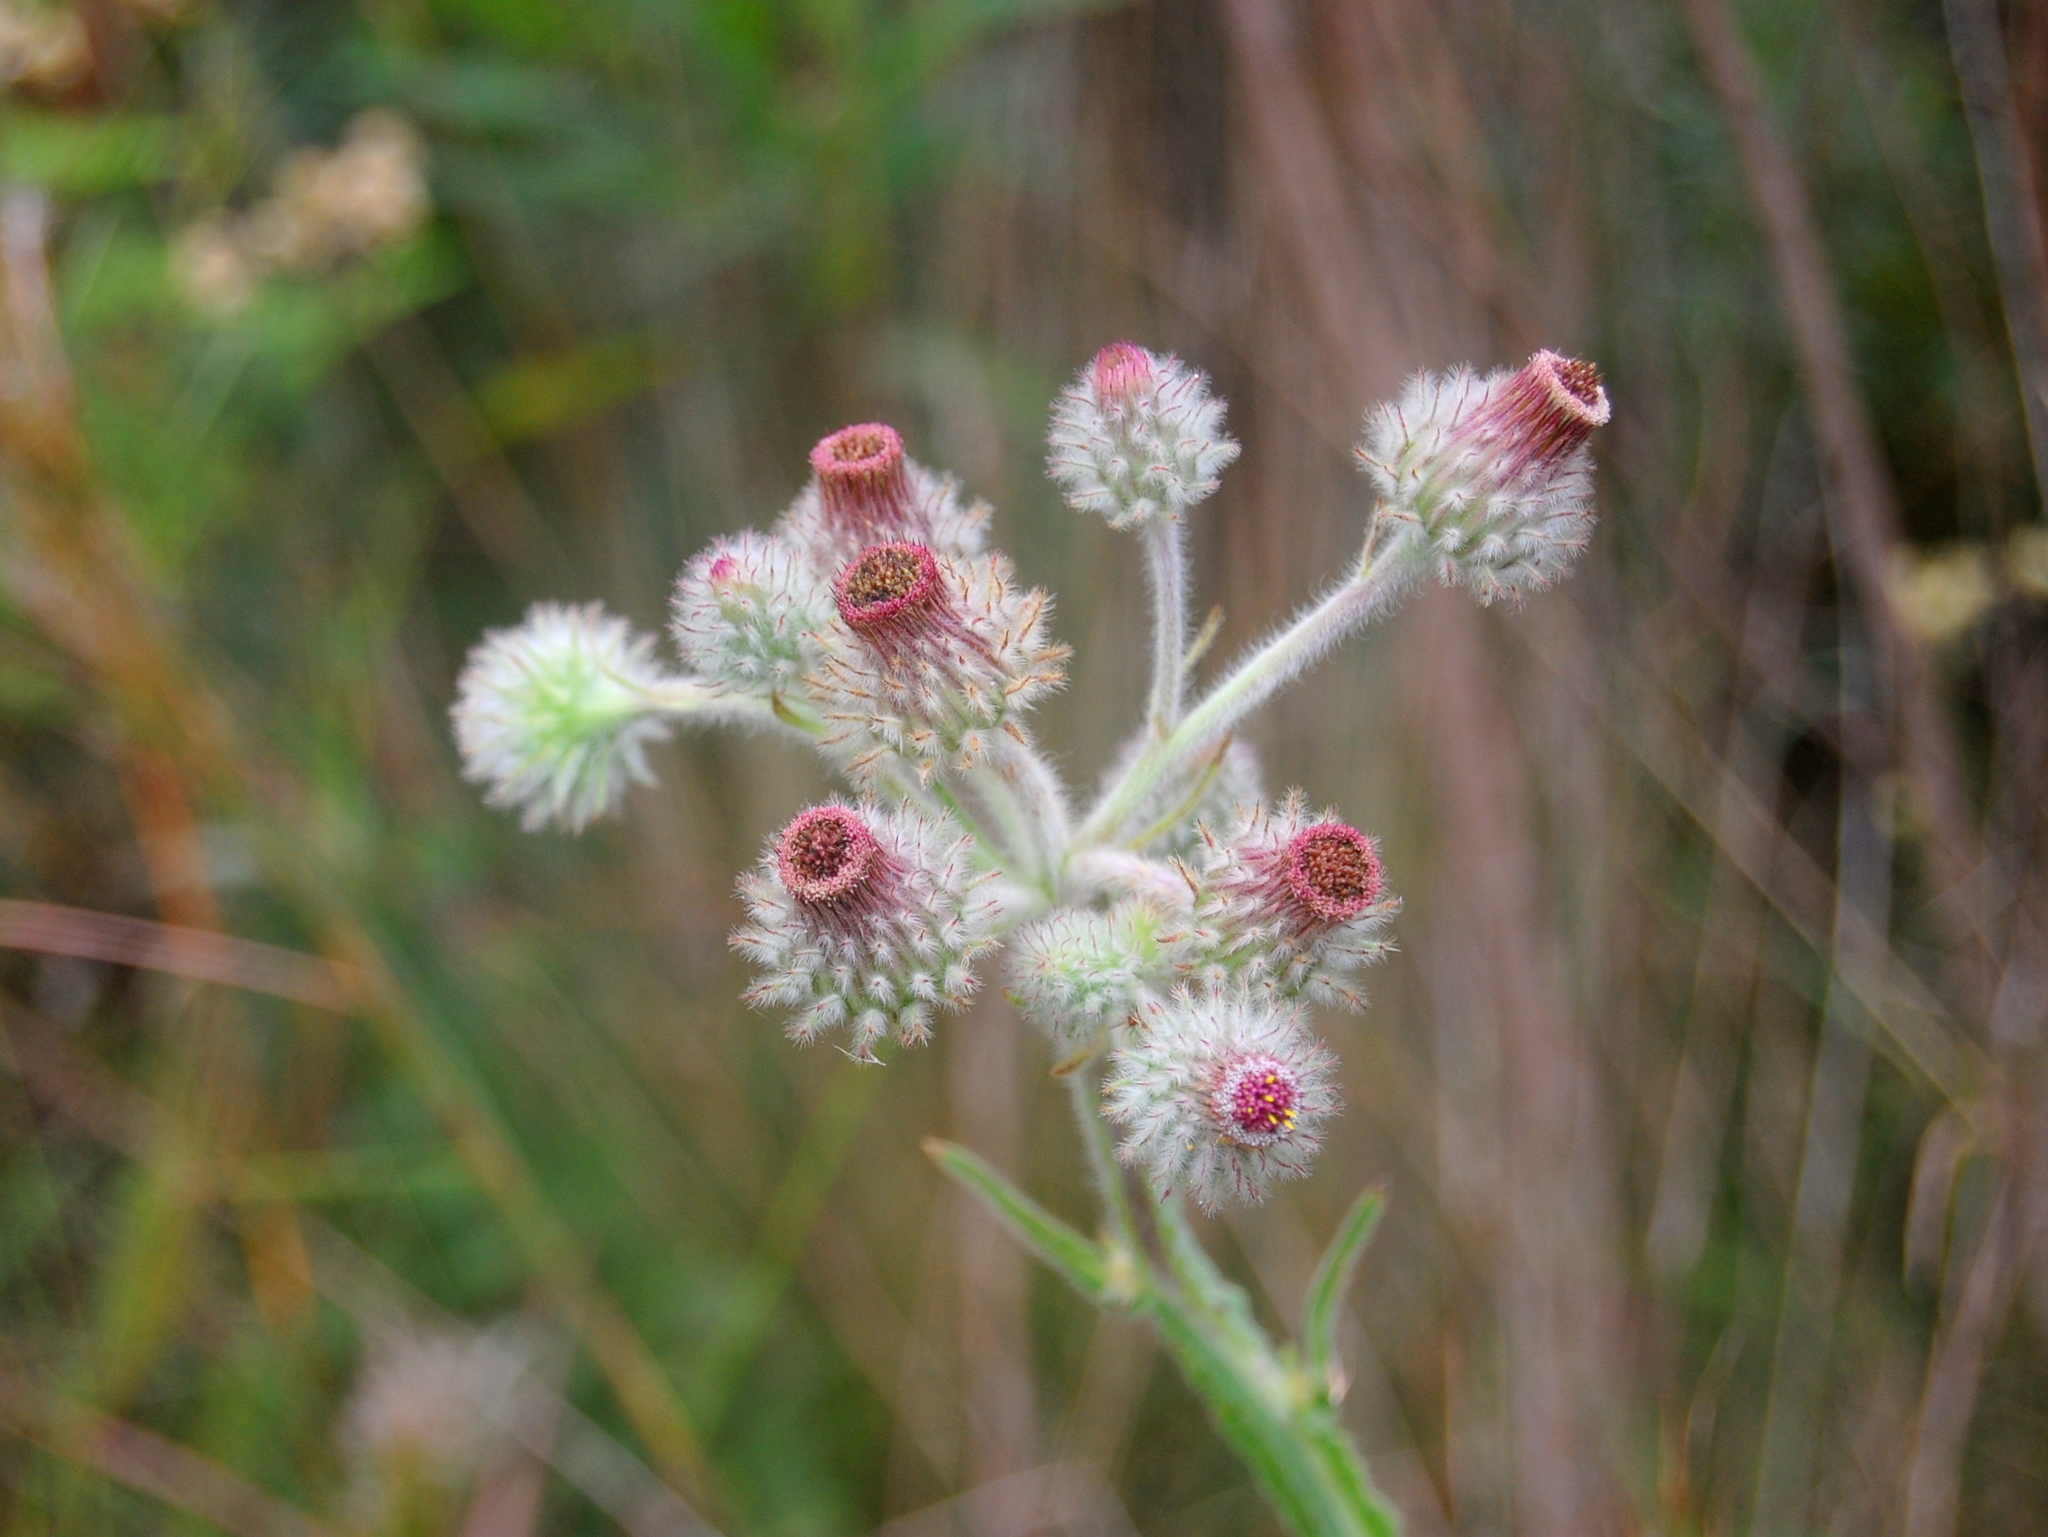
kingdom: Plantae
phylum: Tracheophyta
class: Magnoliopsida
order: Asterales
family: Asteraceae
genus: Stenachaenium
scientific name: Stenachaenium macrocephalum
